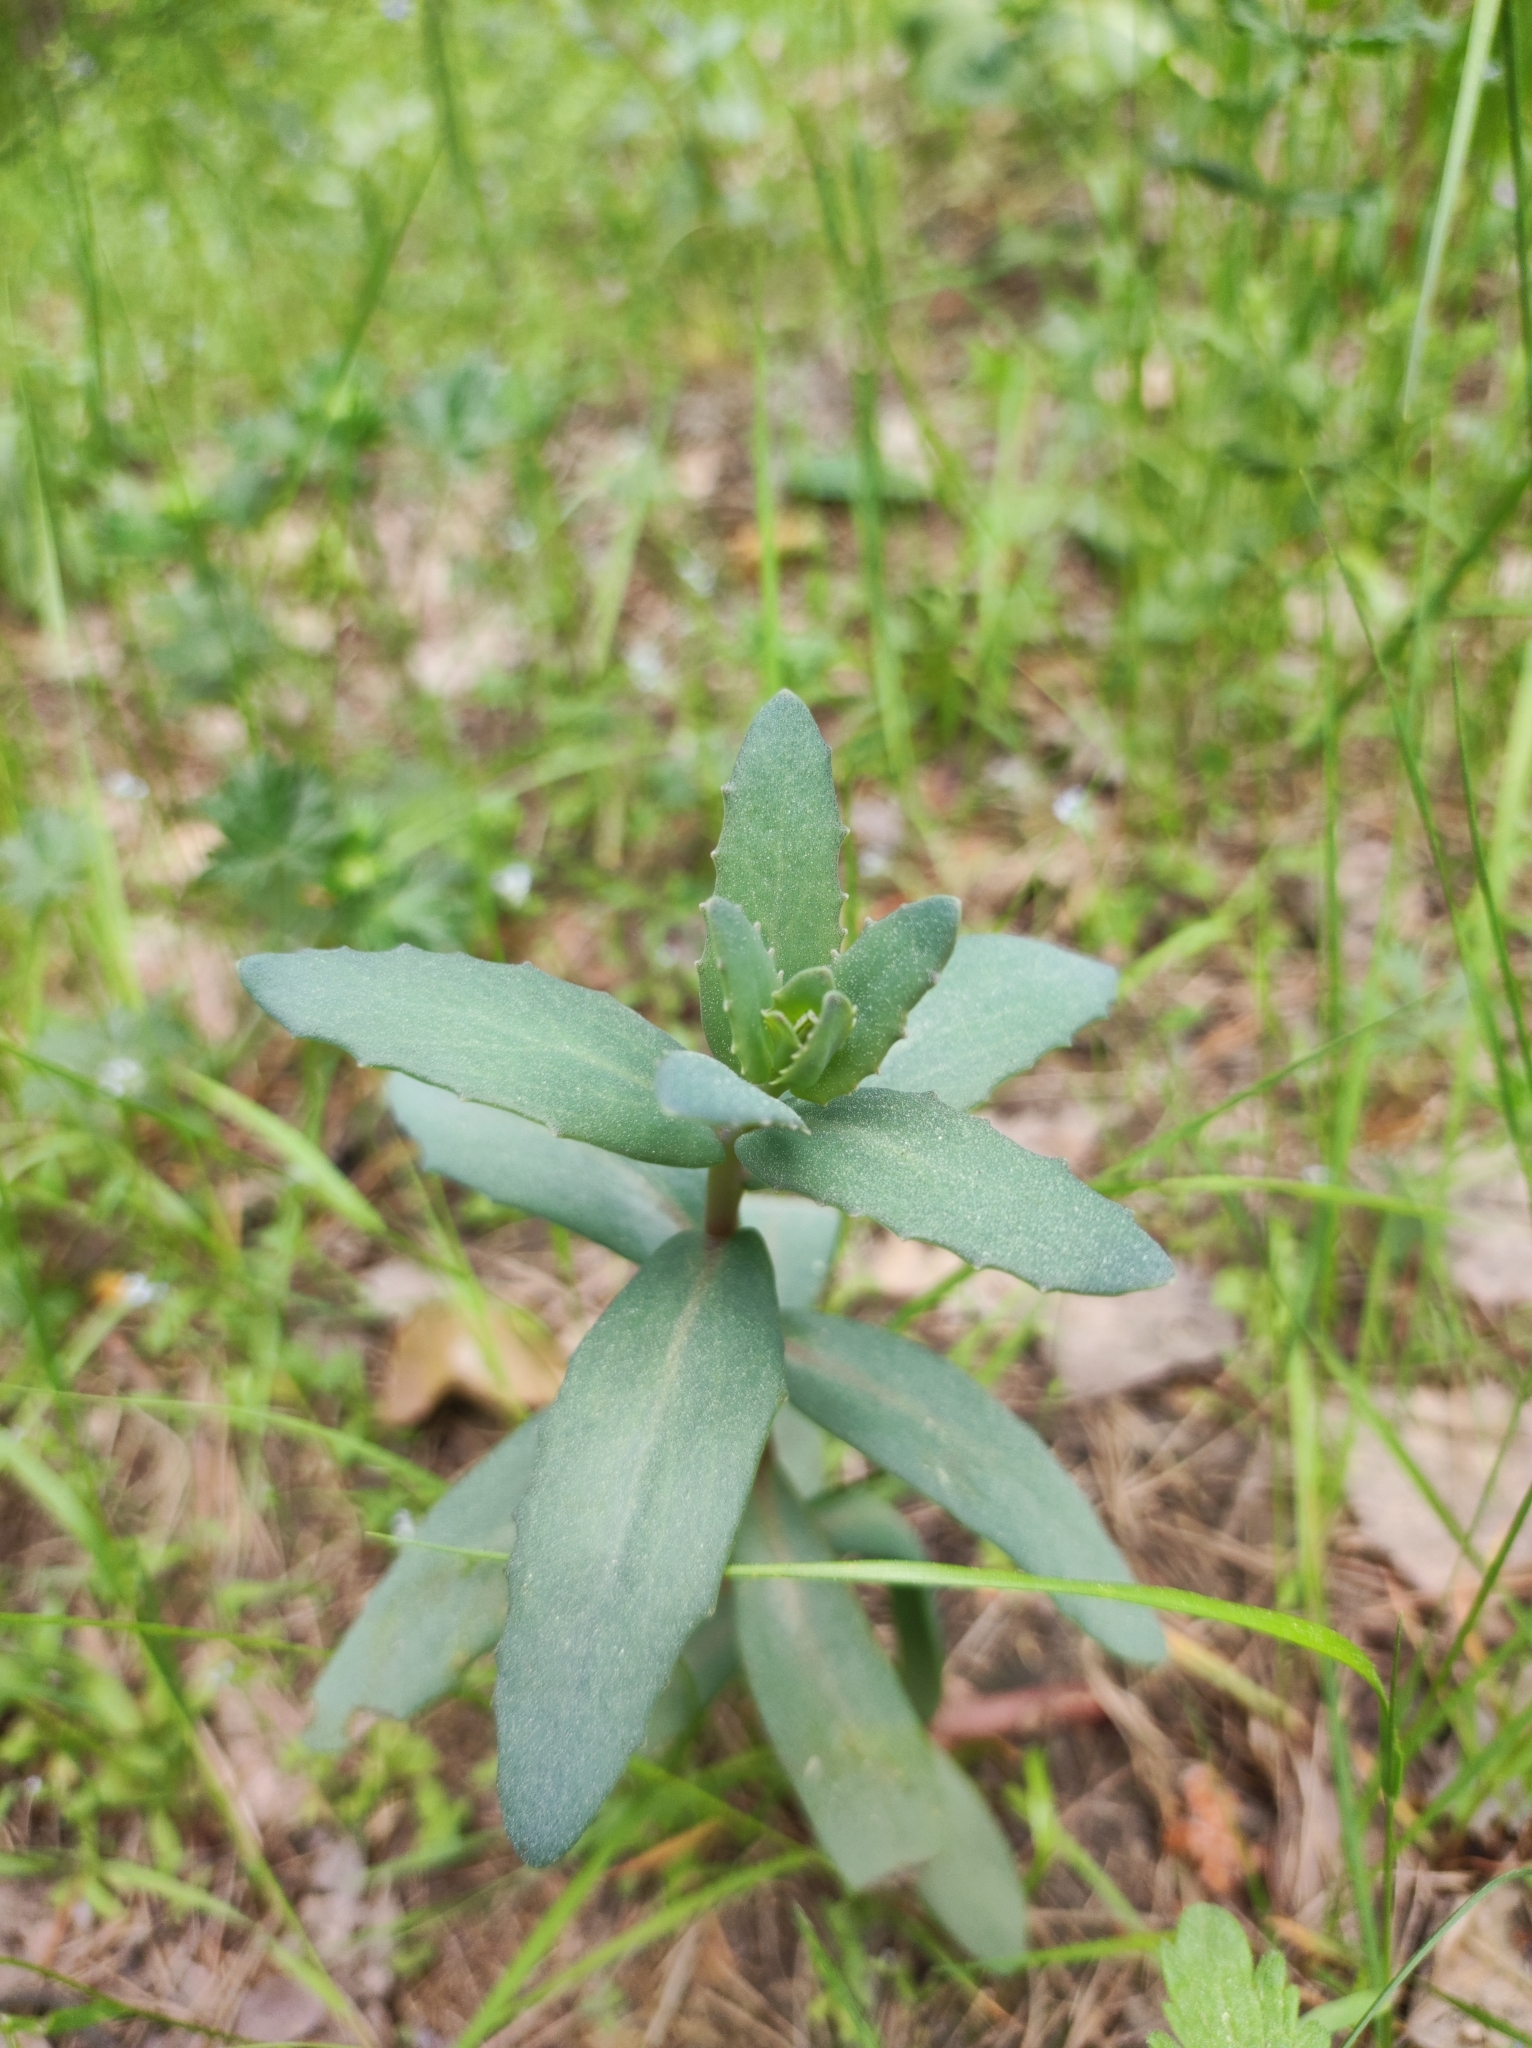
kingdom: Plantae
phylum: Tracheophyta
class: Magnoliopsida
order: Saxifragales
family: Crassulaceae
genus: Hylotelephium
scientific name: Hylotelephium maximum
